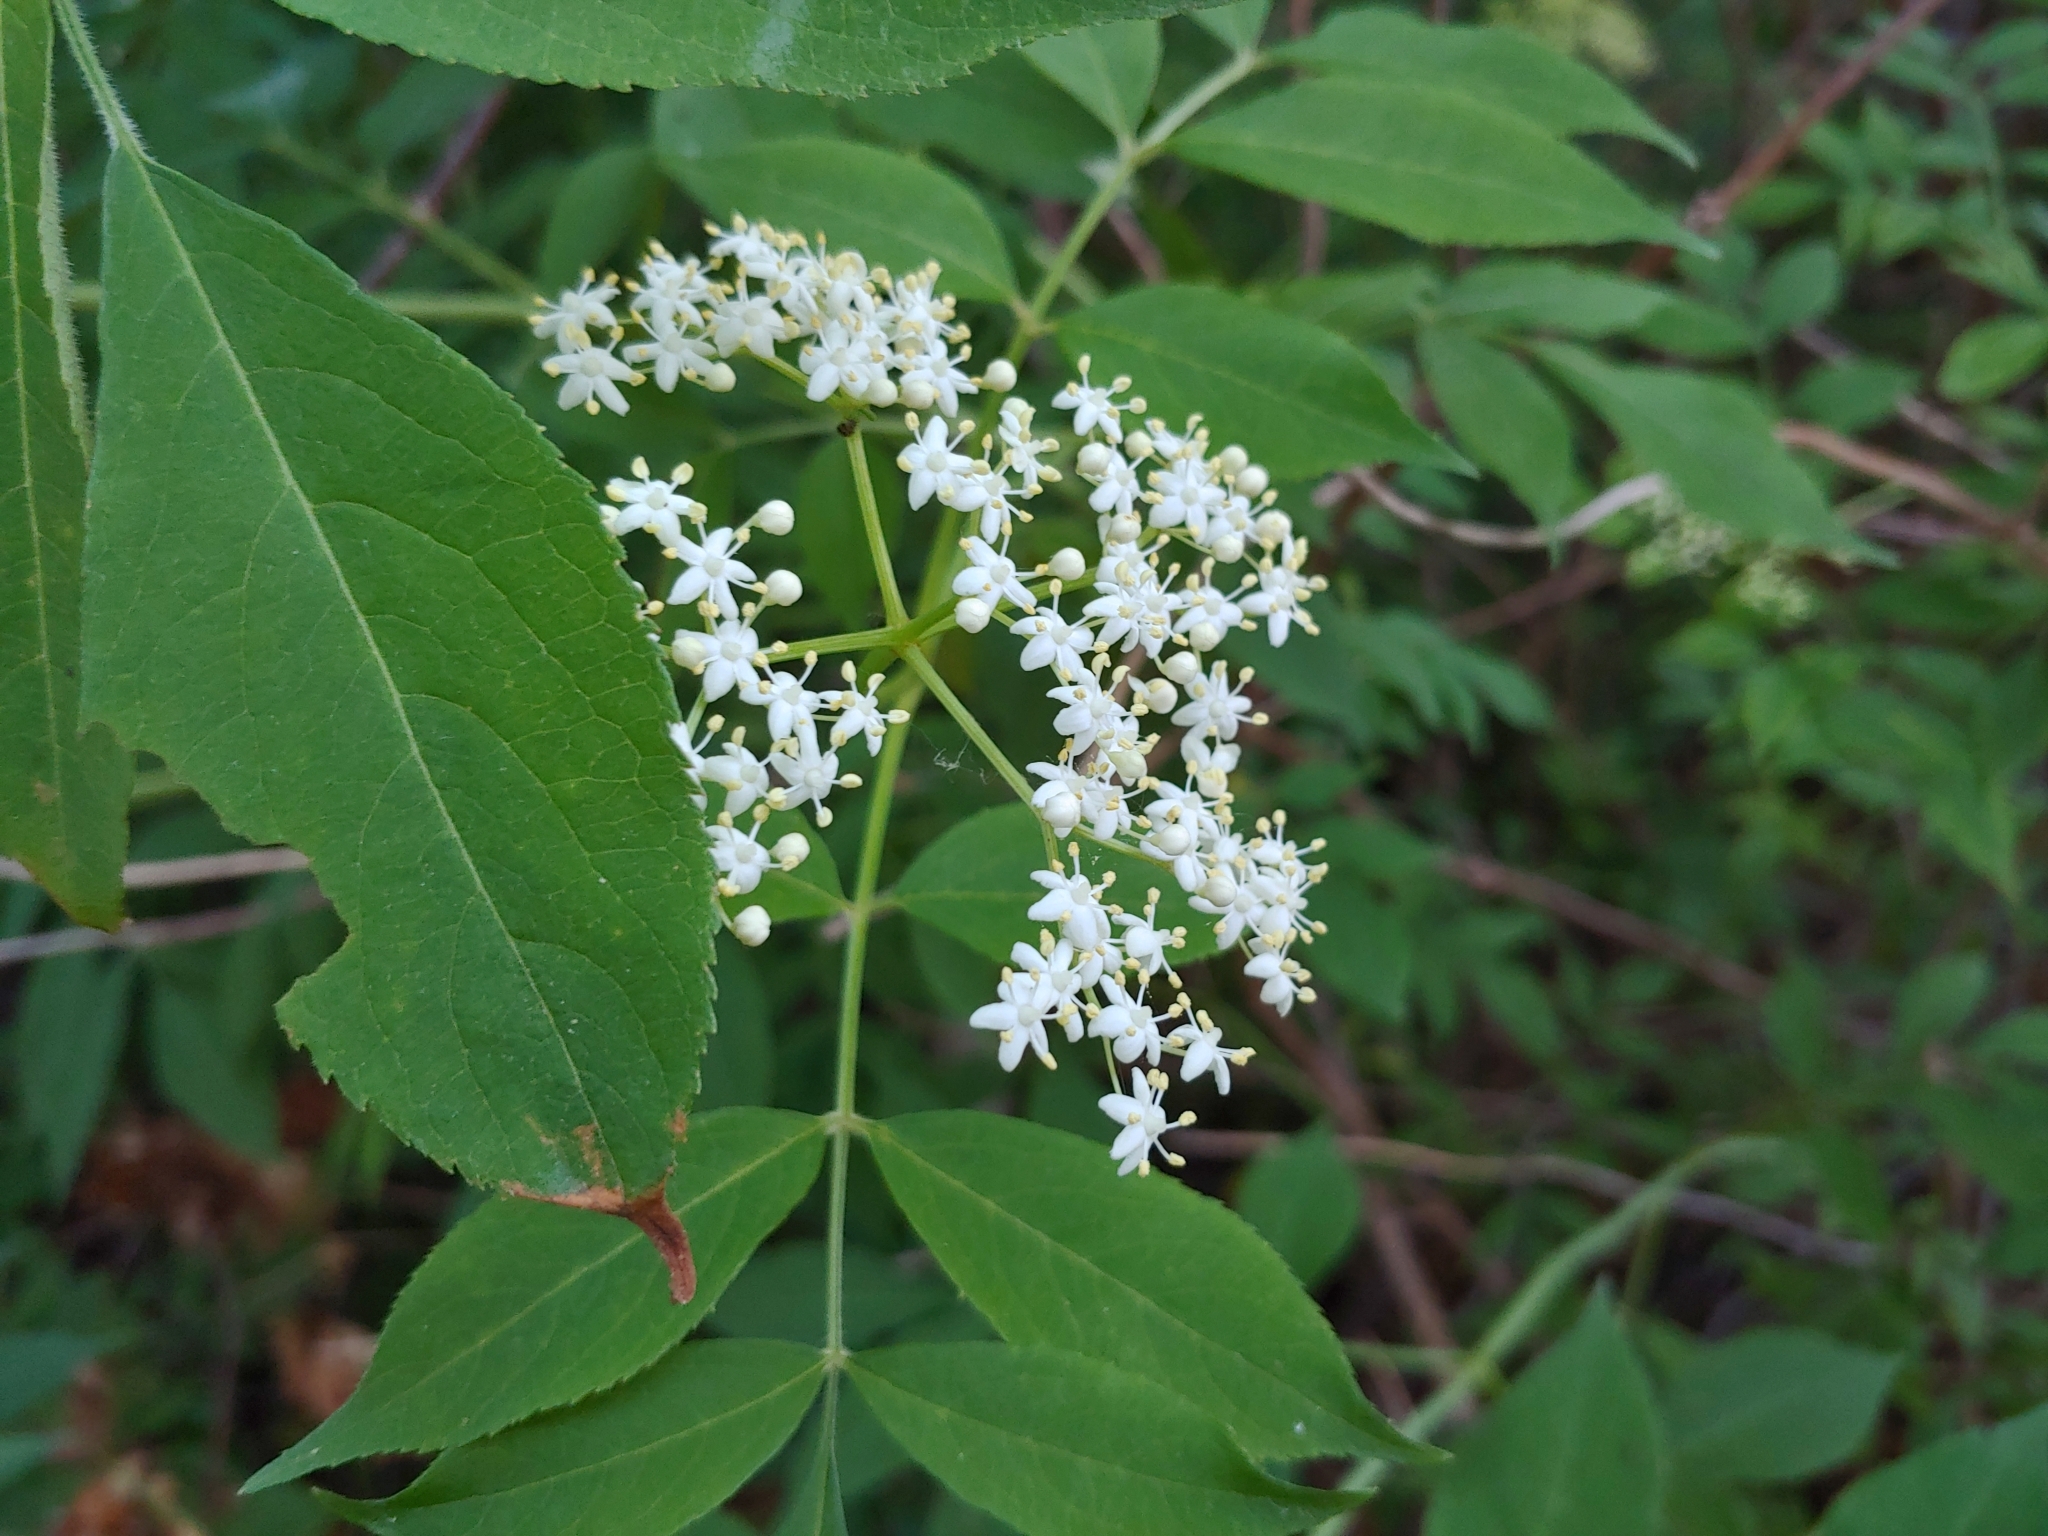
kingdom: Plantae
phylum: Tracheophyta
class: Magnoliopsida
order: Dipsacales
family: Viburnaceae
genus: Sambucus
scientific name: Sambucus canadensis
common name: American elder
